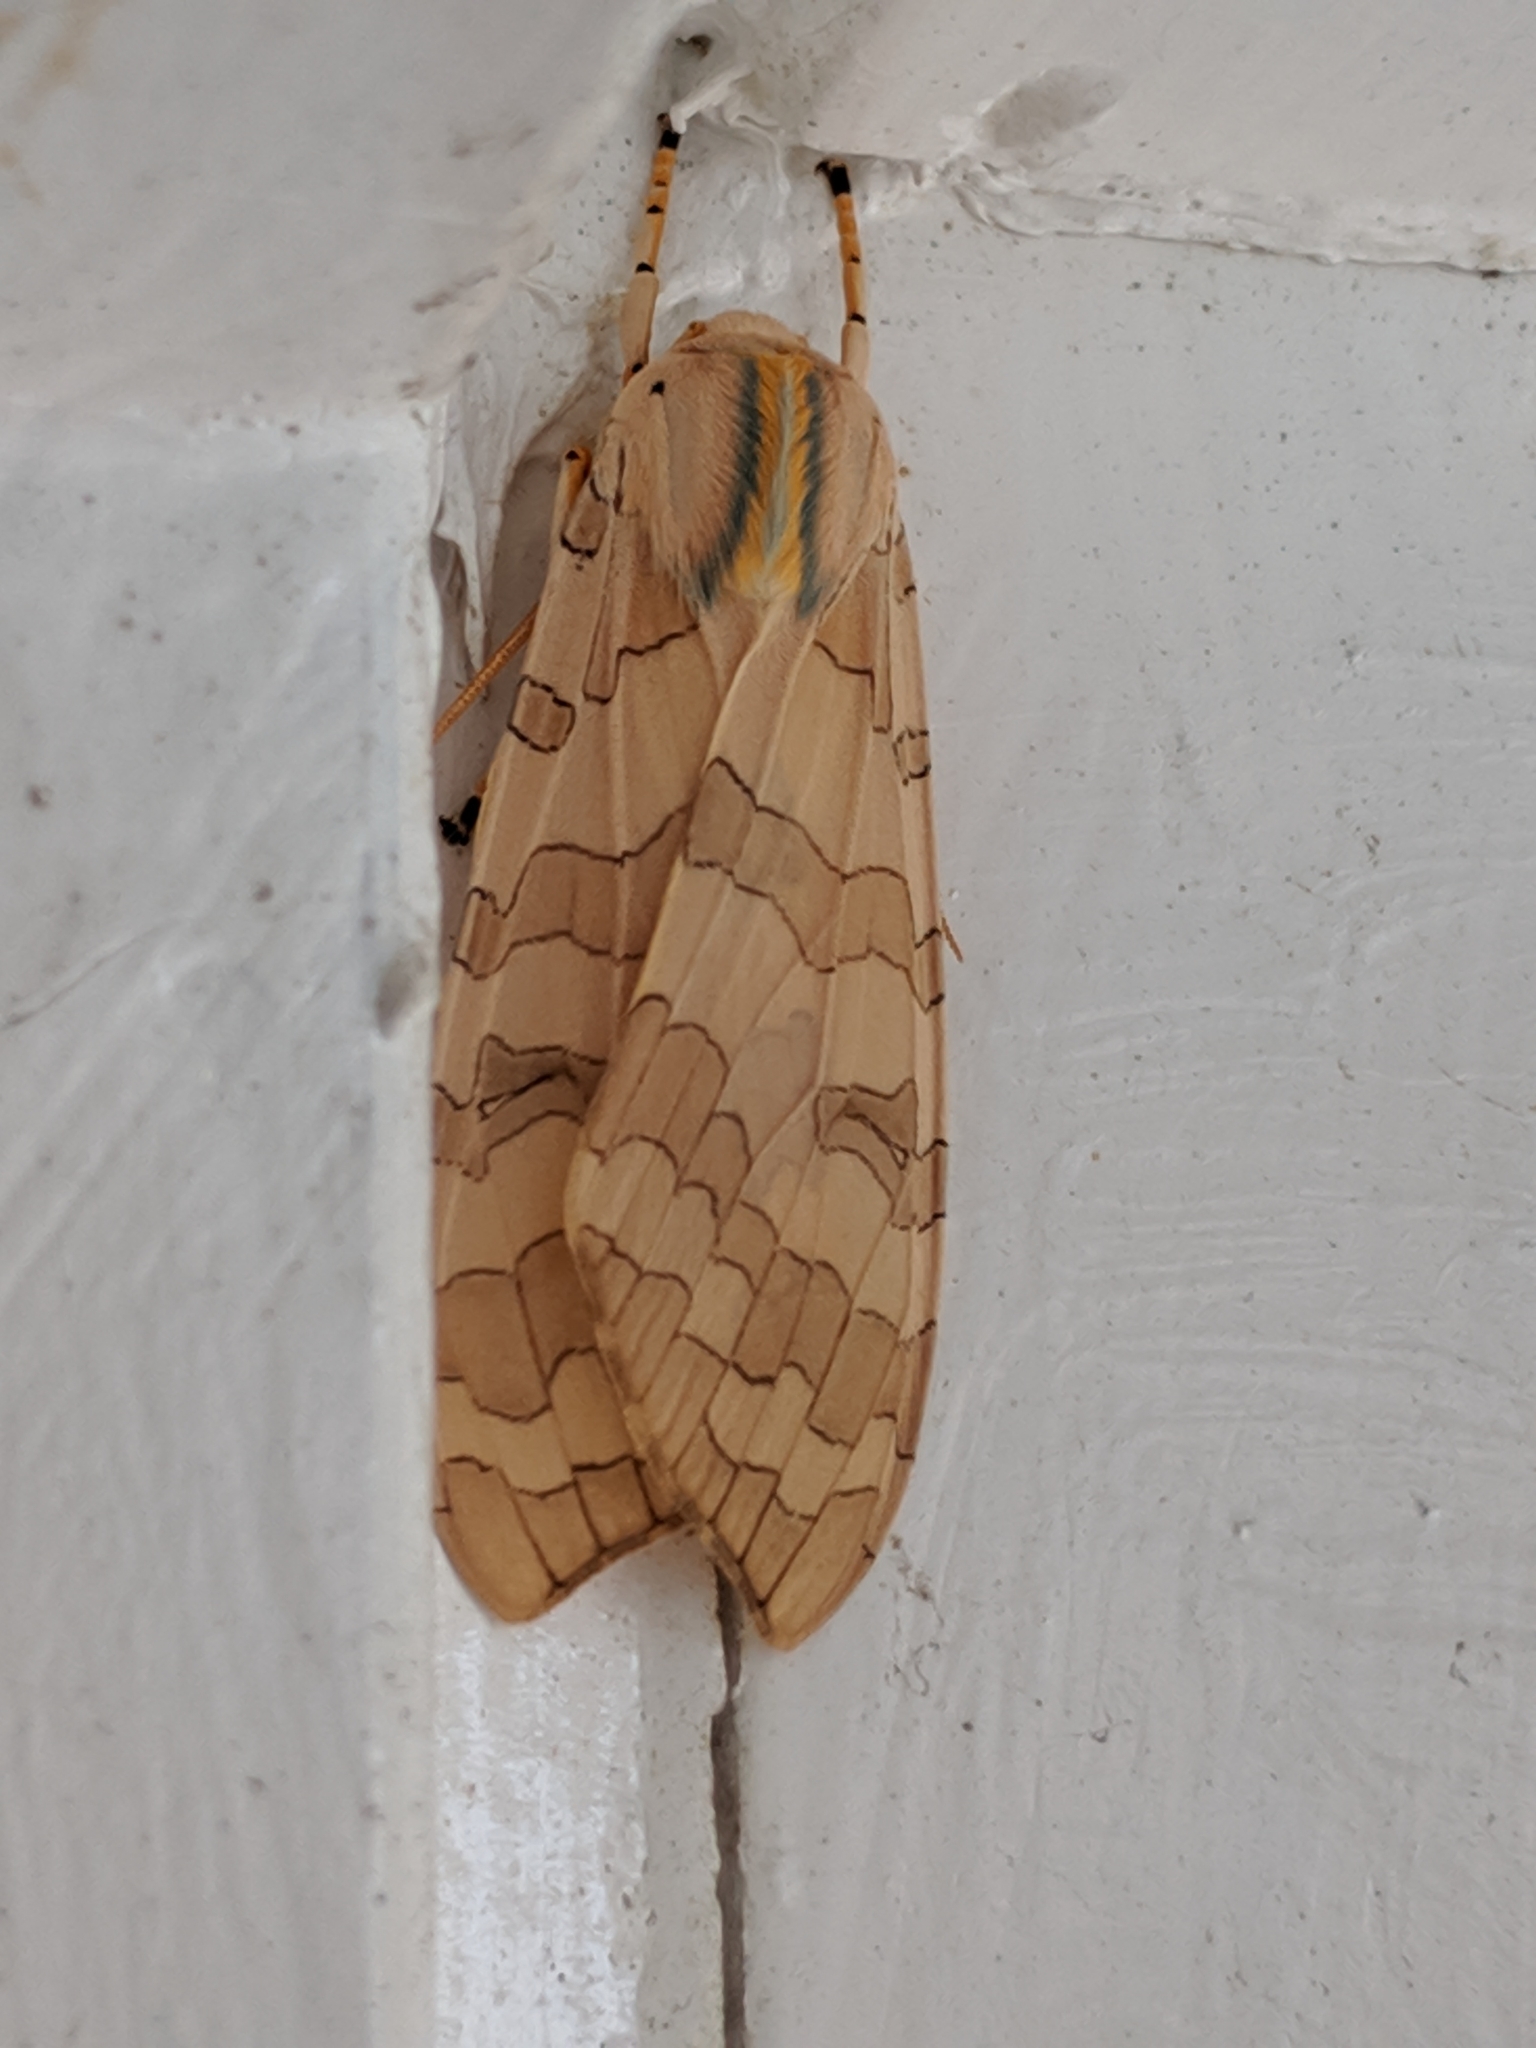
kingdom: Animalia
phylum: Arthropoda
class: Insecta
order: Lepidoptera
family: Erebidae
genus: Halysidota
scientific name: Halysidota
